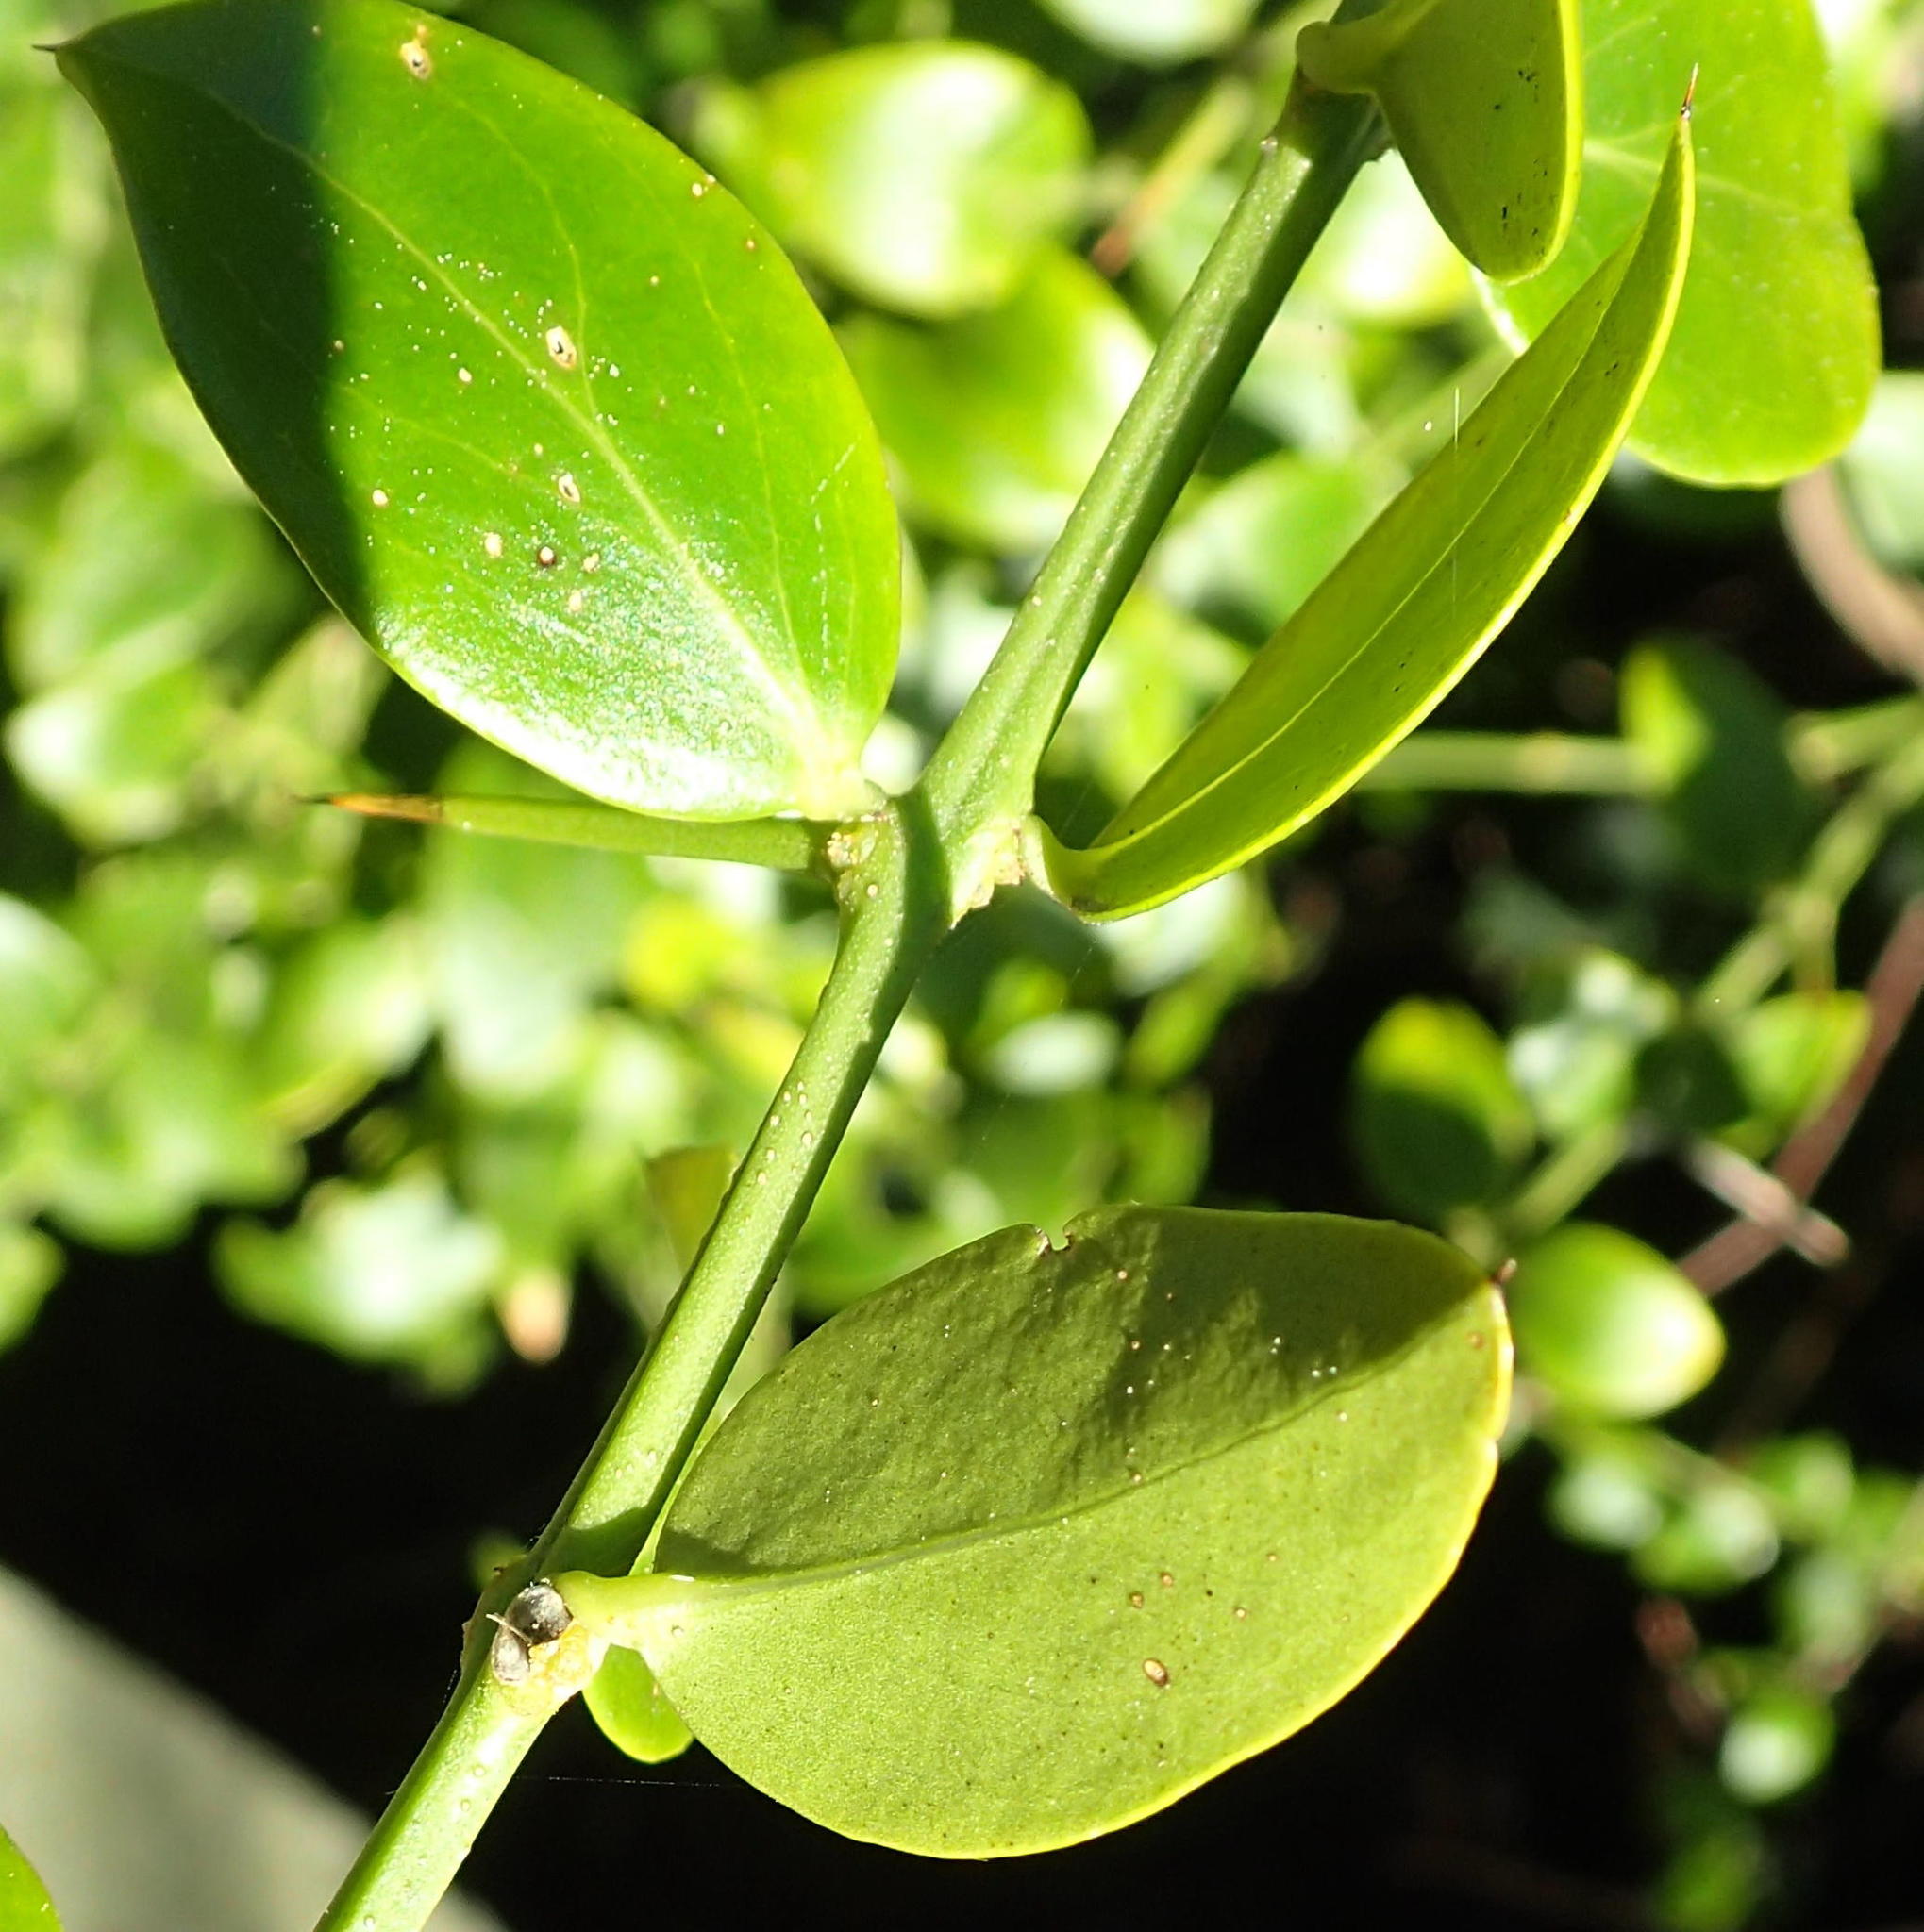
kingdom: Plantae
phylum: Tracheophyta
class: Magnoliopsida
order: Brassicales
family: Salvadoraceae
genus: Azima
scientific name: Azima tetracantha
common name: Needle bush
